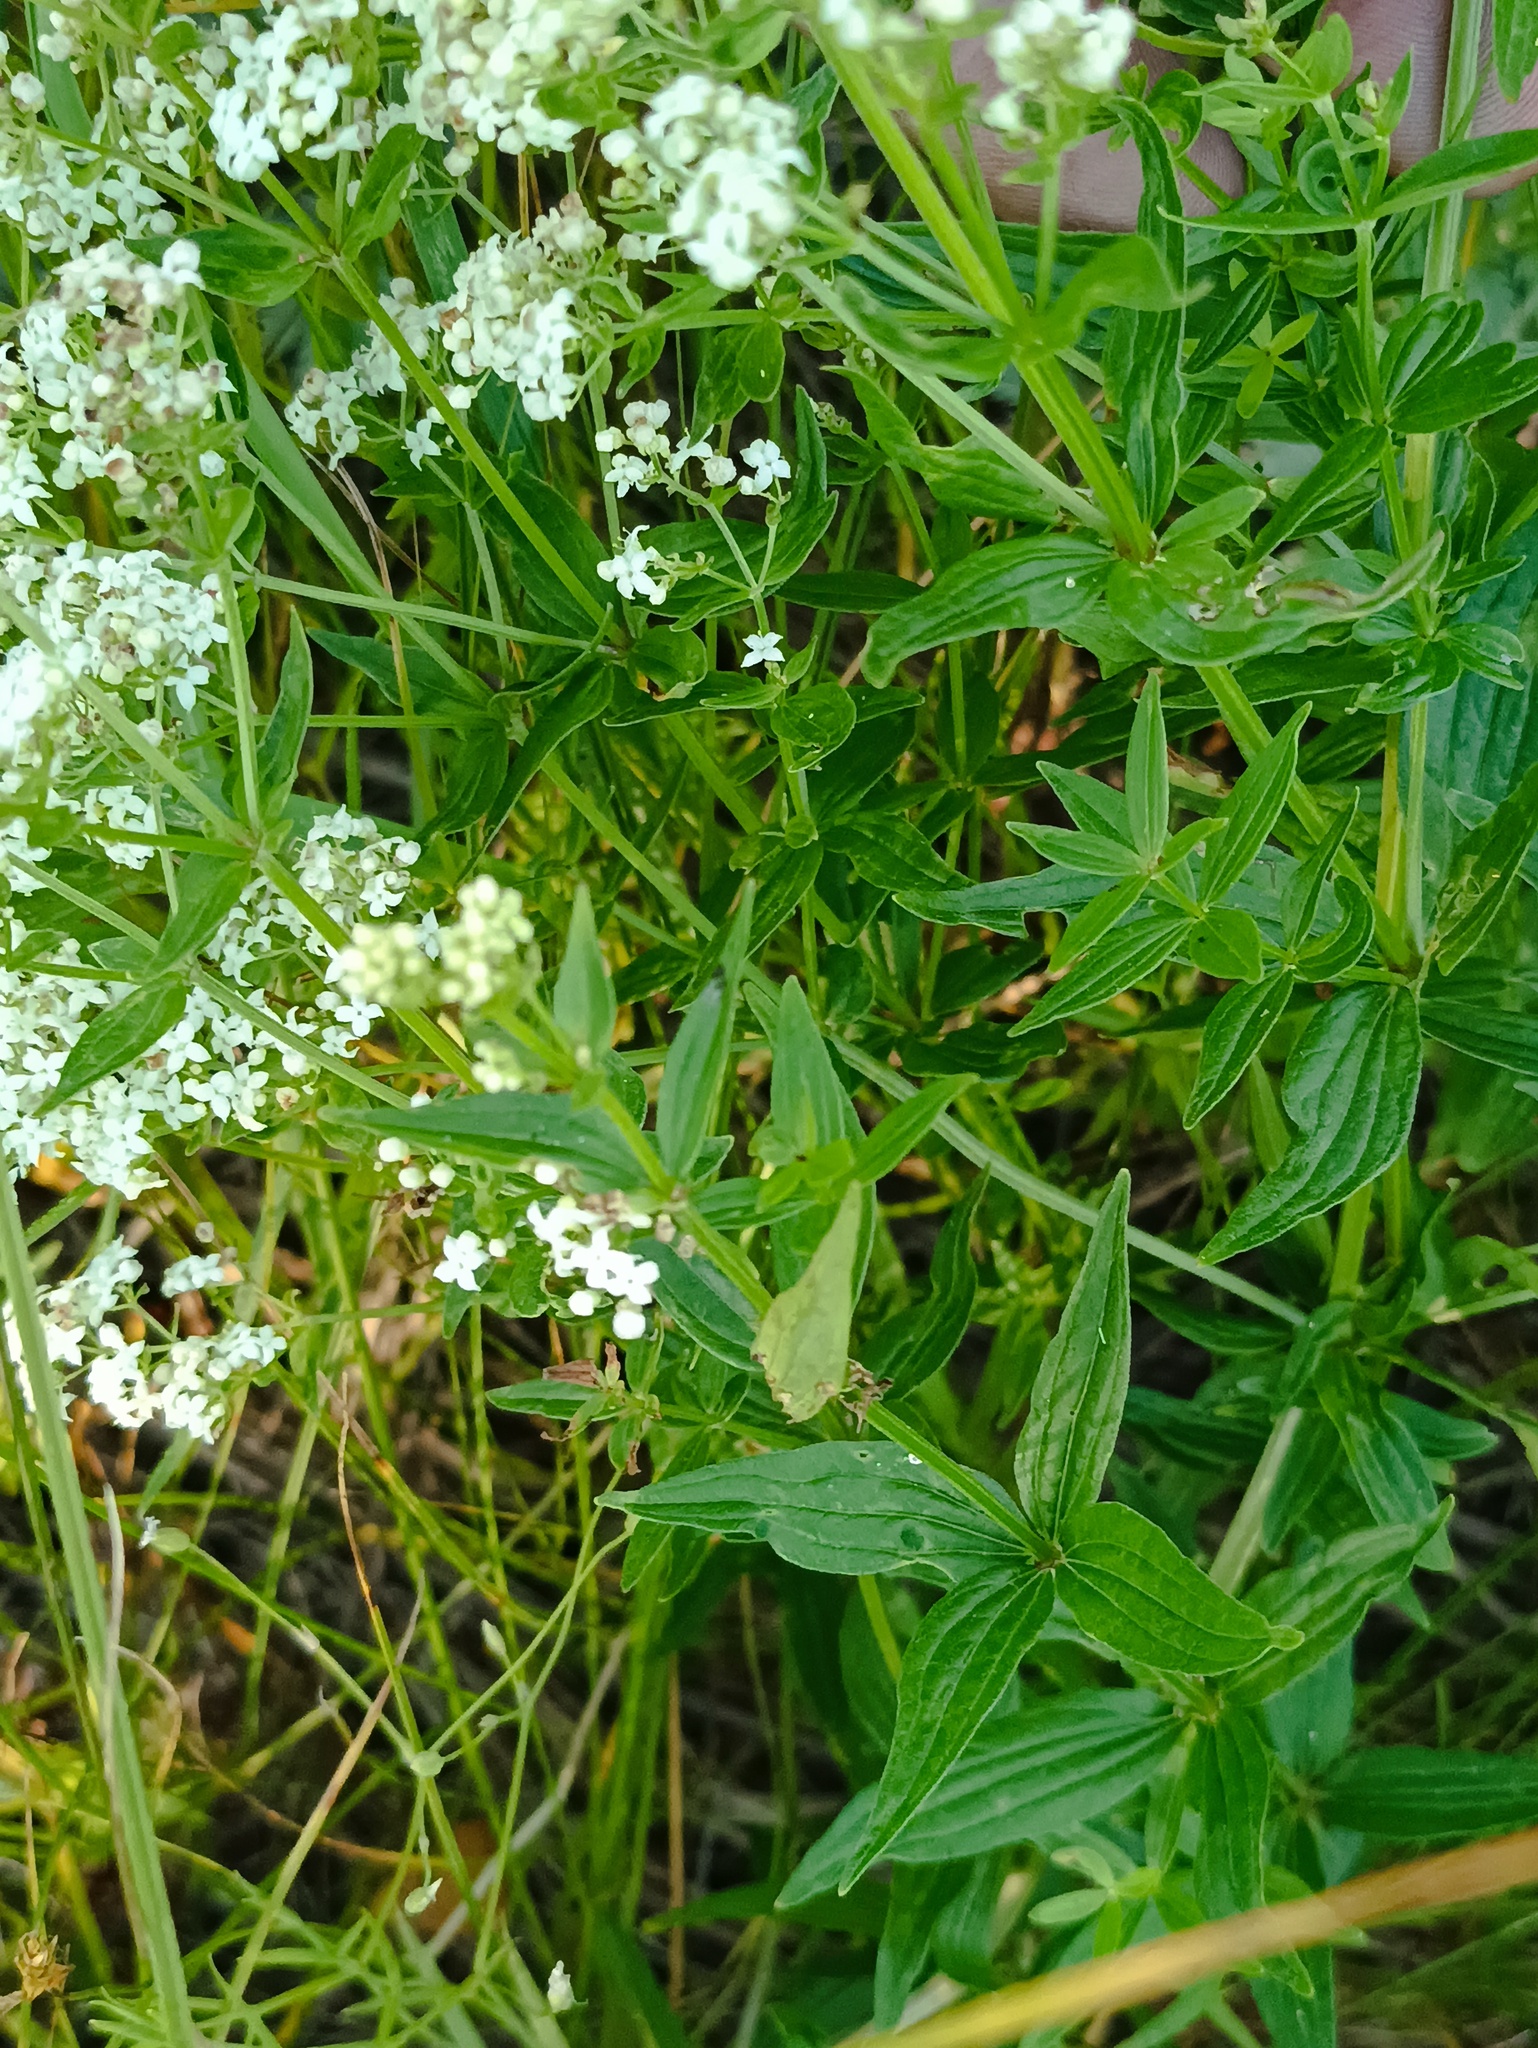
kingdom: Plantae
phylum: Tracheophyta
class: Magnoliopsida
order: Gentianales
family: Rubiaceae
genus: Galium
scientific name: Galium boreale
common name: Northern bedstraw
